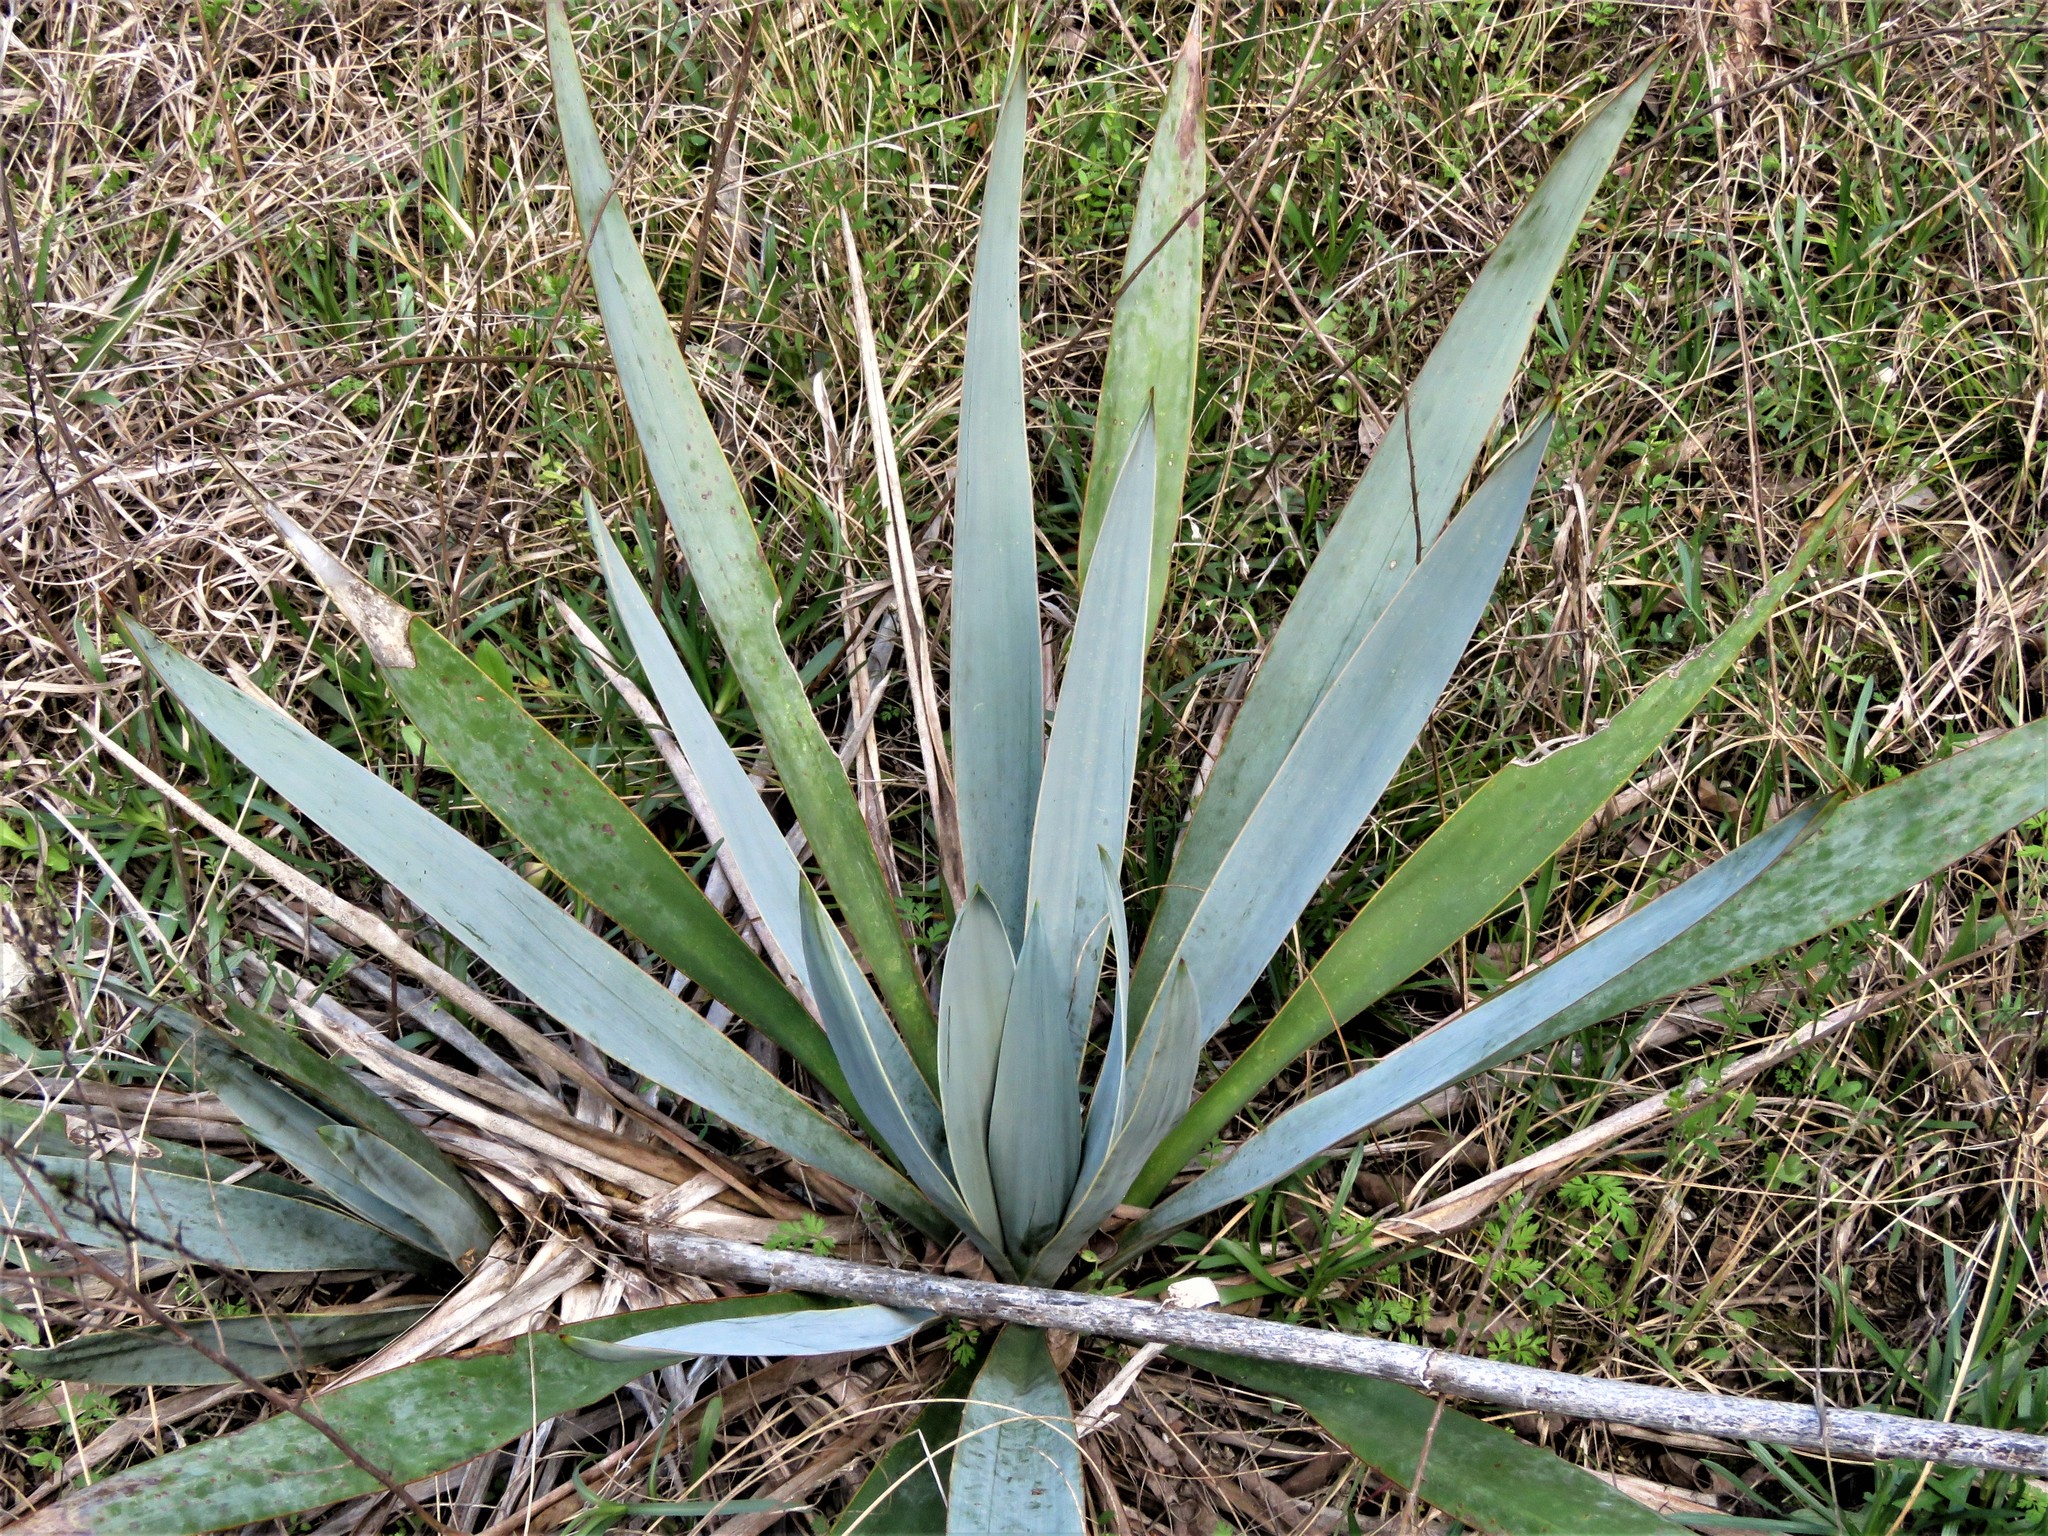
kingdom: Plantae
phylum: Tracheophyta
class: Liliopsida
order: Asparagales
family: Asparagaceae
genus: Yucca
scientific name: Yucca pallida
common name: Pale leaf yucca
